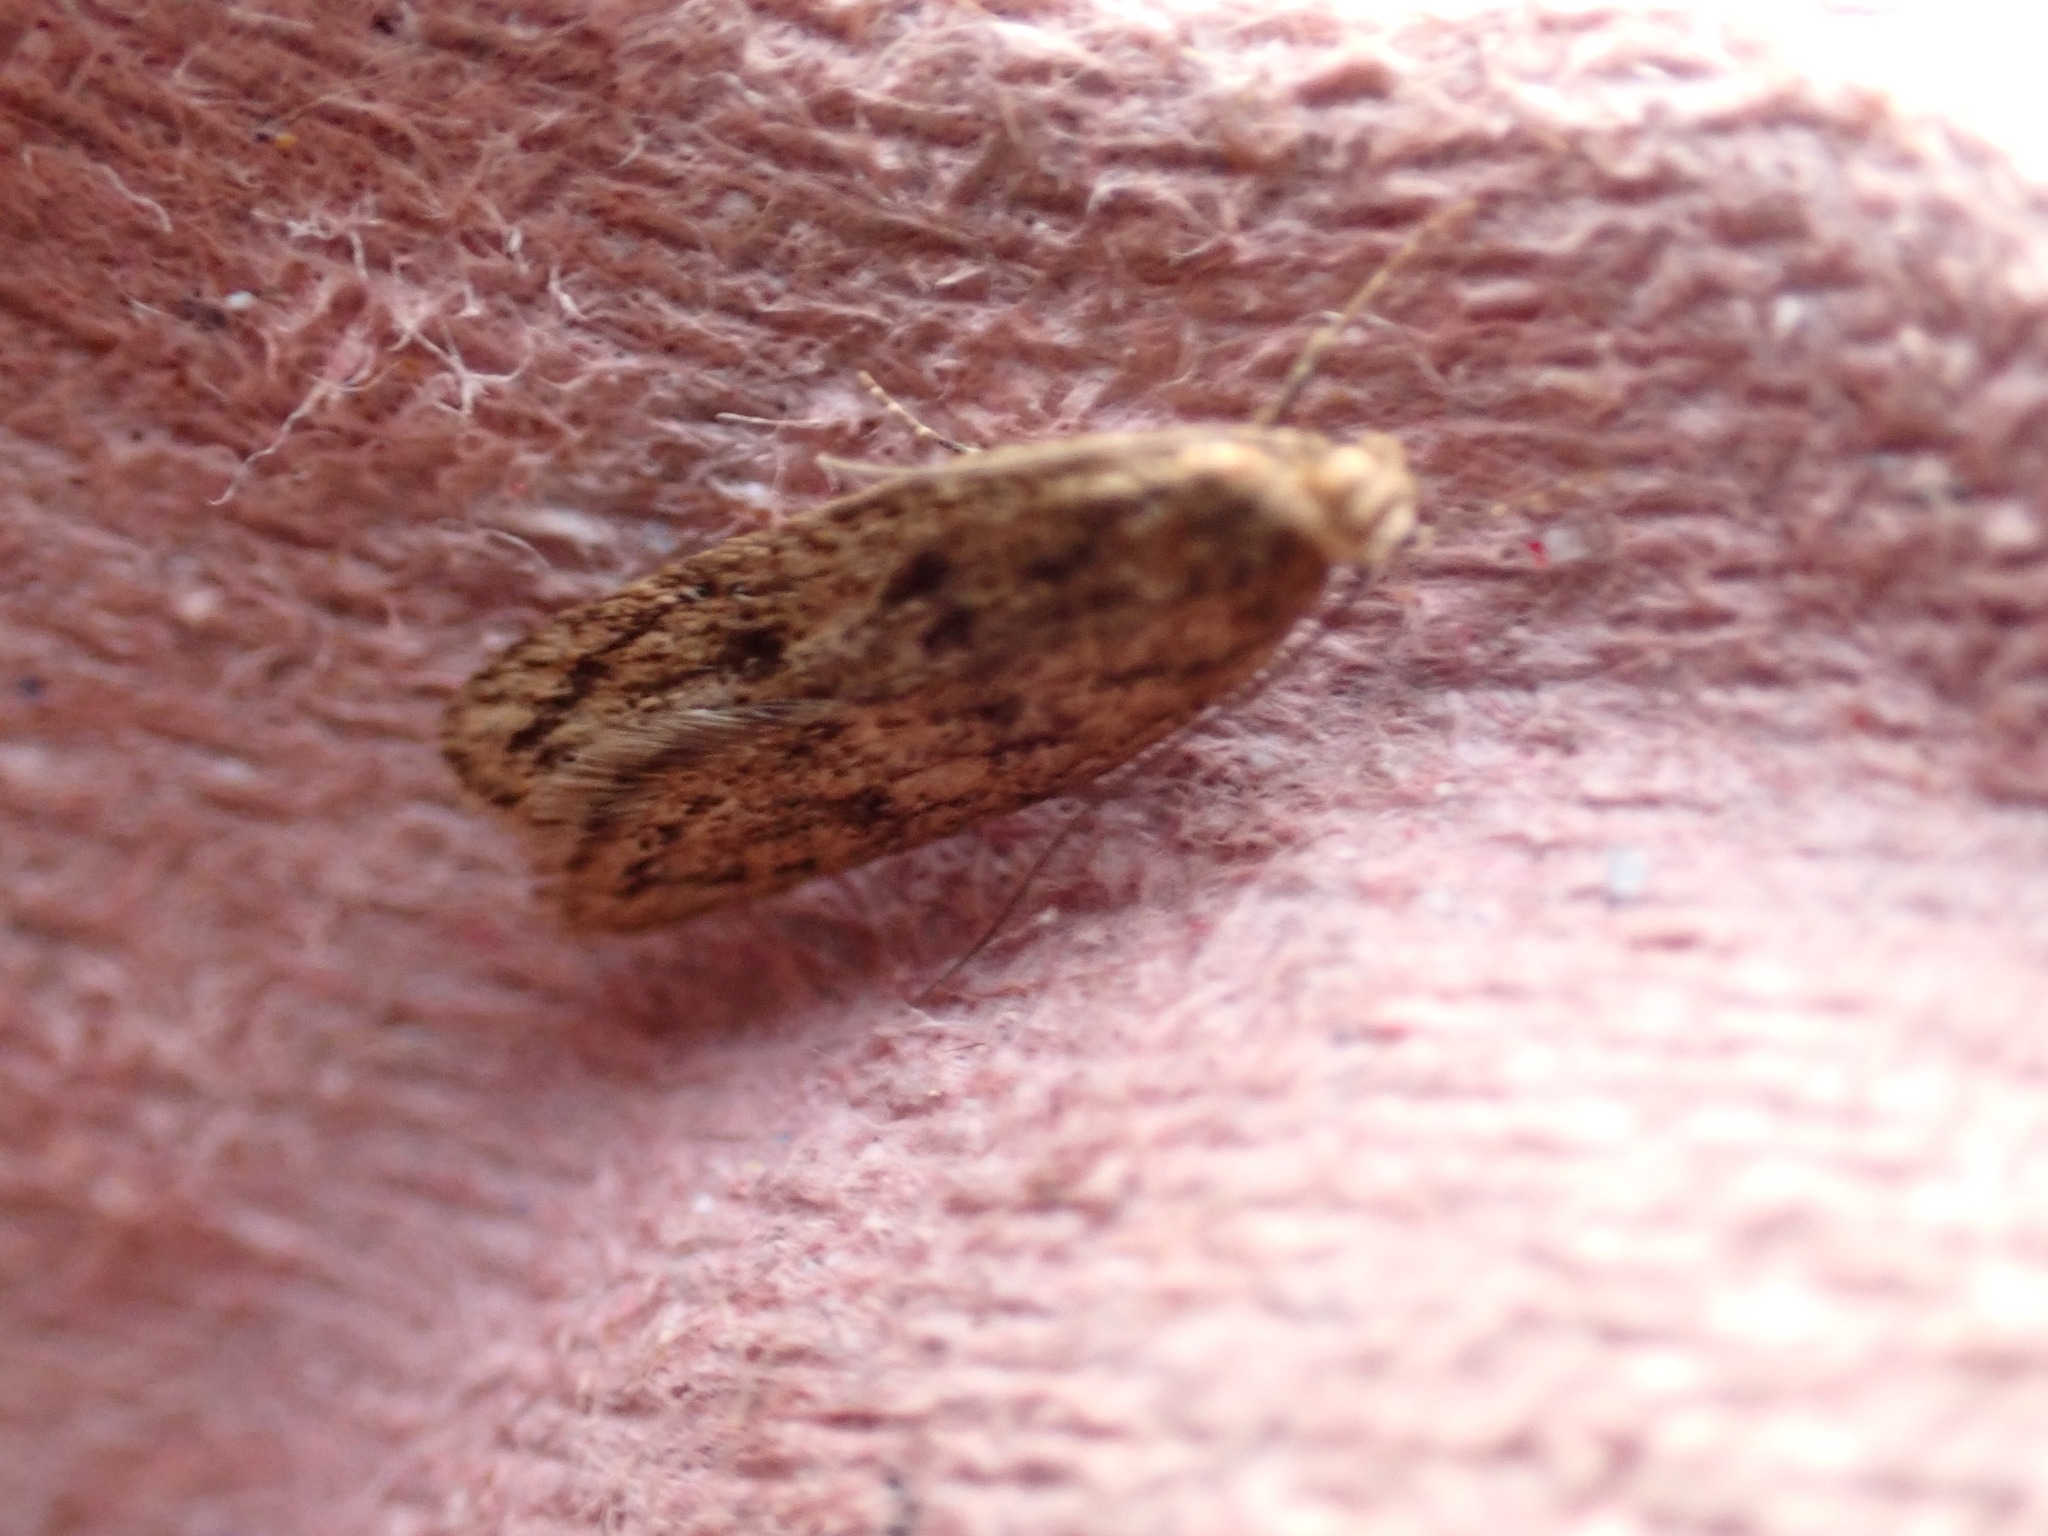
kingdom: Animalia
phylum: Arthropoda
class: Insecta
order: Lepidoptera
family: Oecophoridae
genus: Hofmannophila
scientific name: Hofmannophila pseudospretella
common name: Brown house moth
